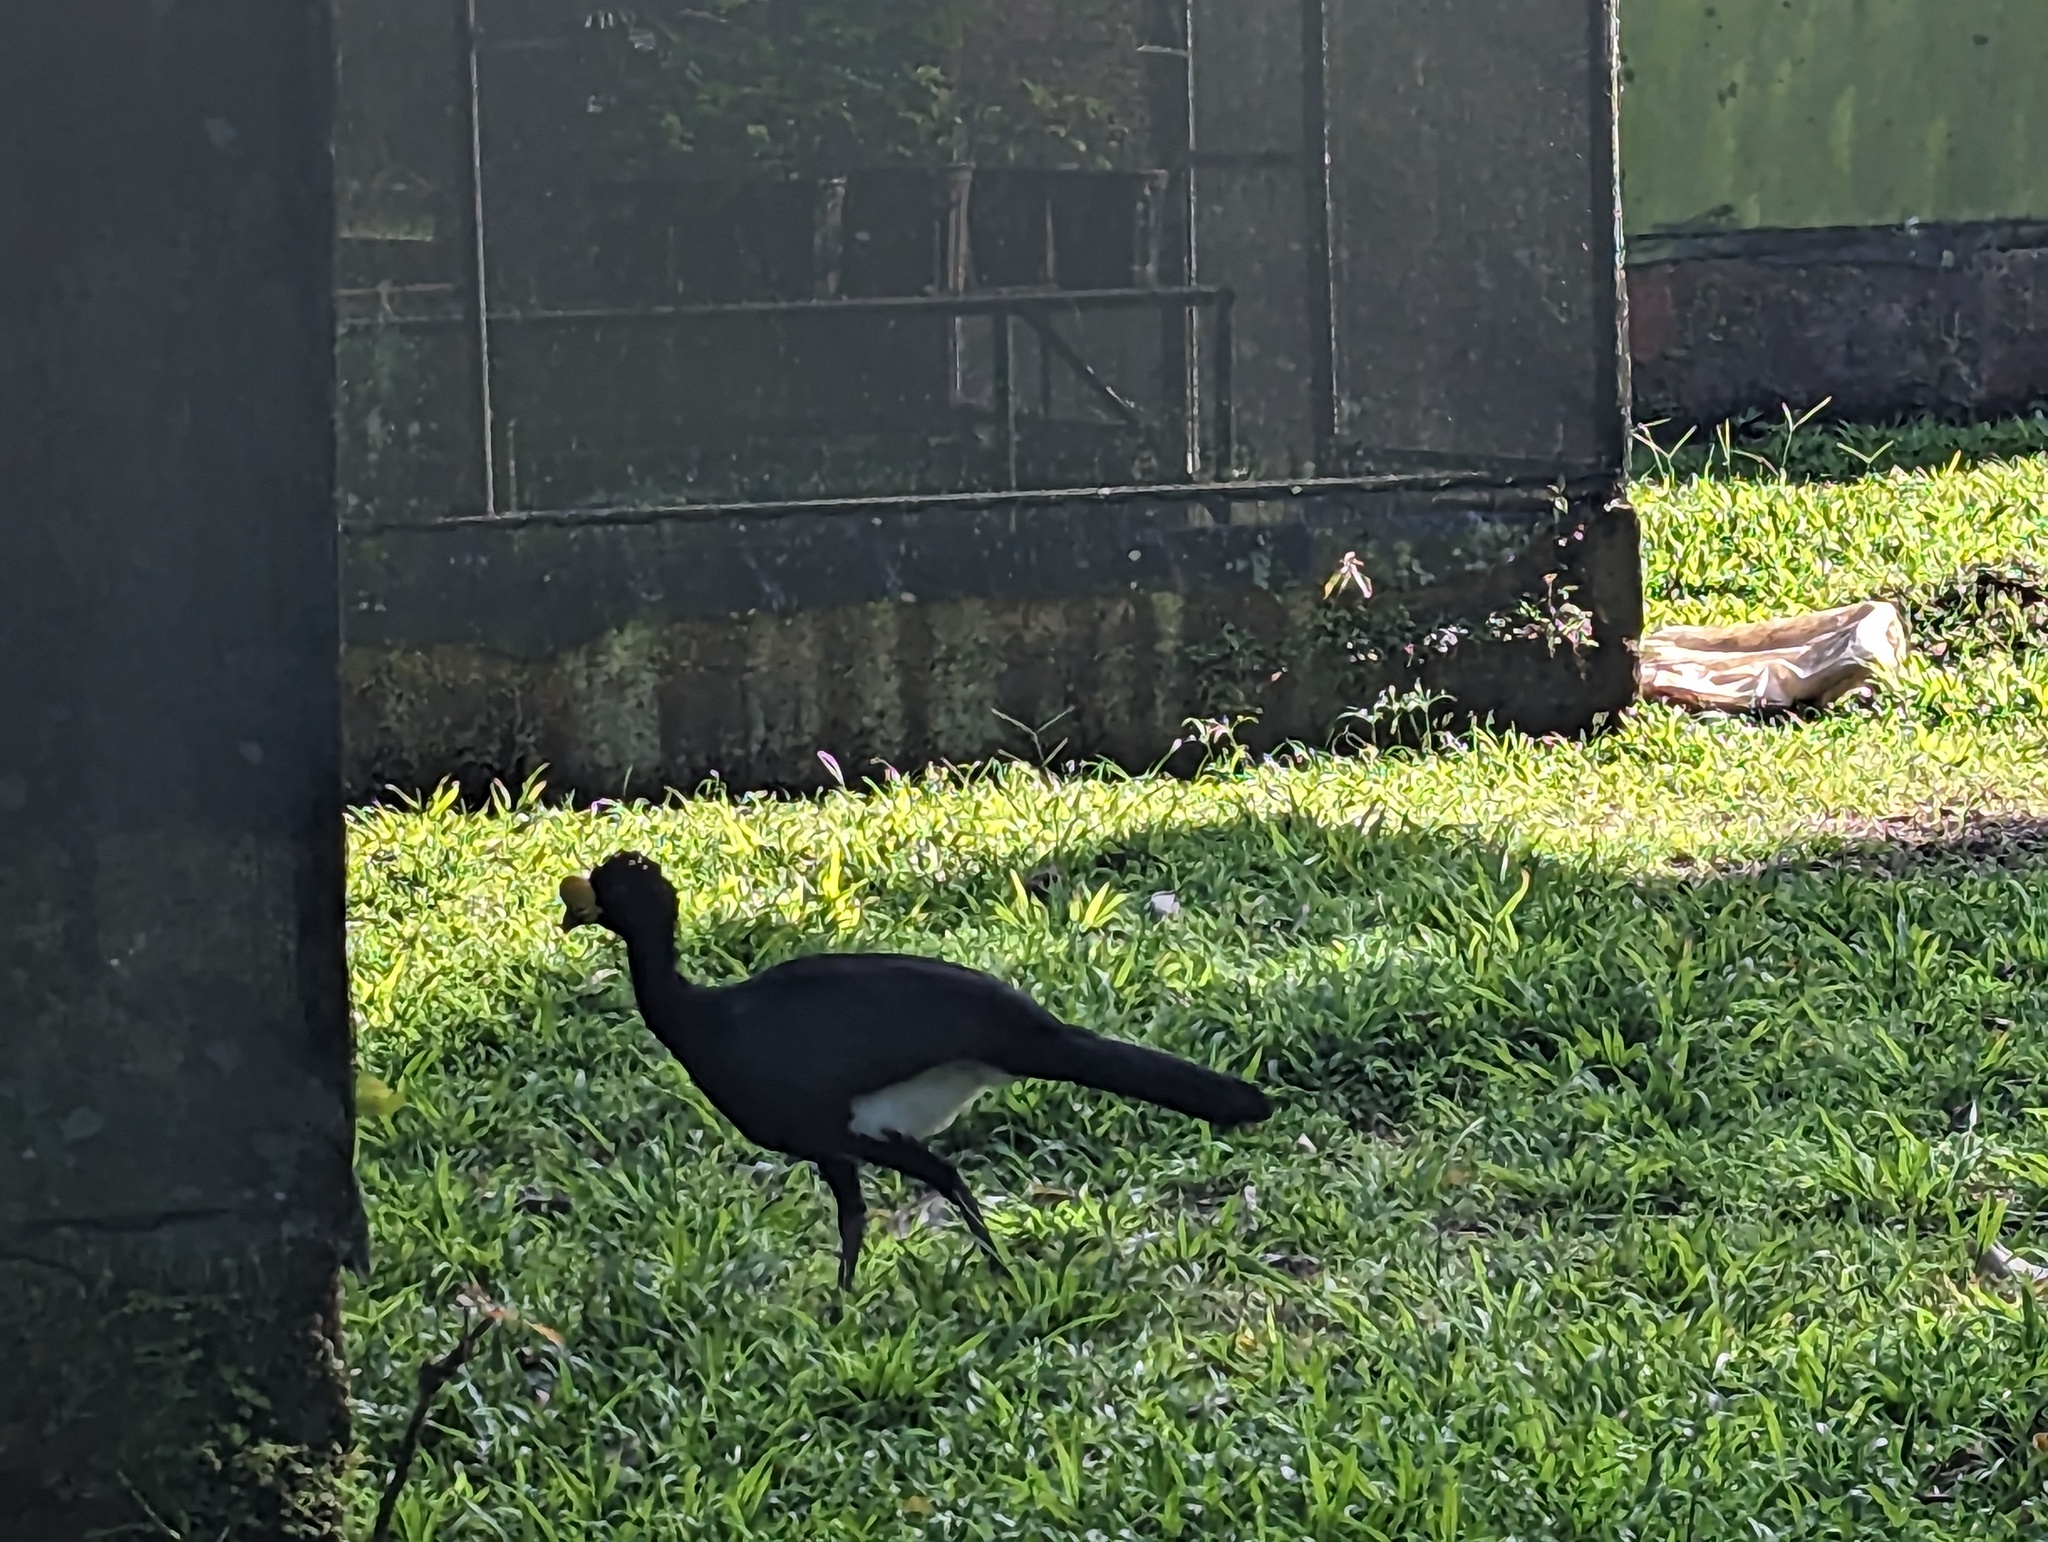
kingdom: Animalia
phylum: Chordata
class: Aves
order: Galliformes
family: Cracidae
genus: Crax
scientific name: Crax rubra
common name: Great curassow
